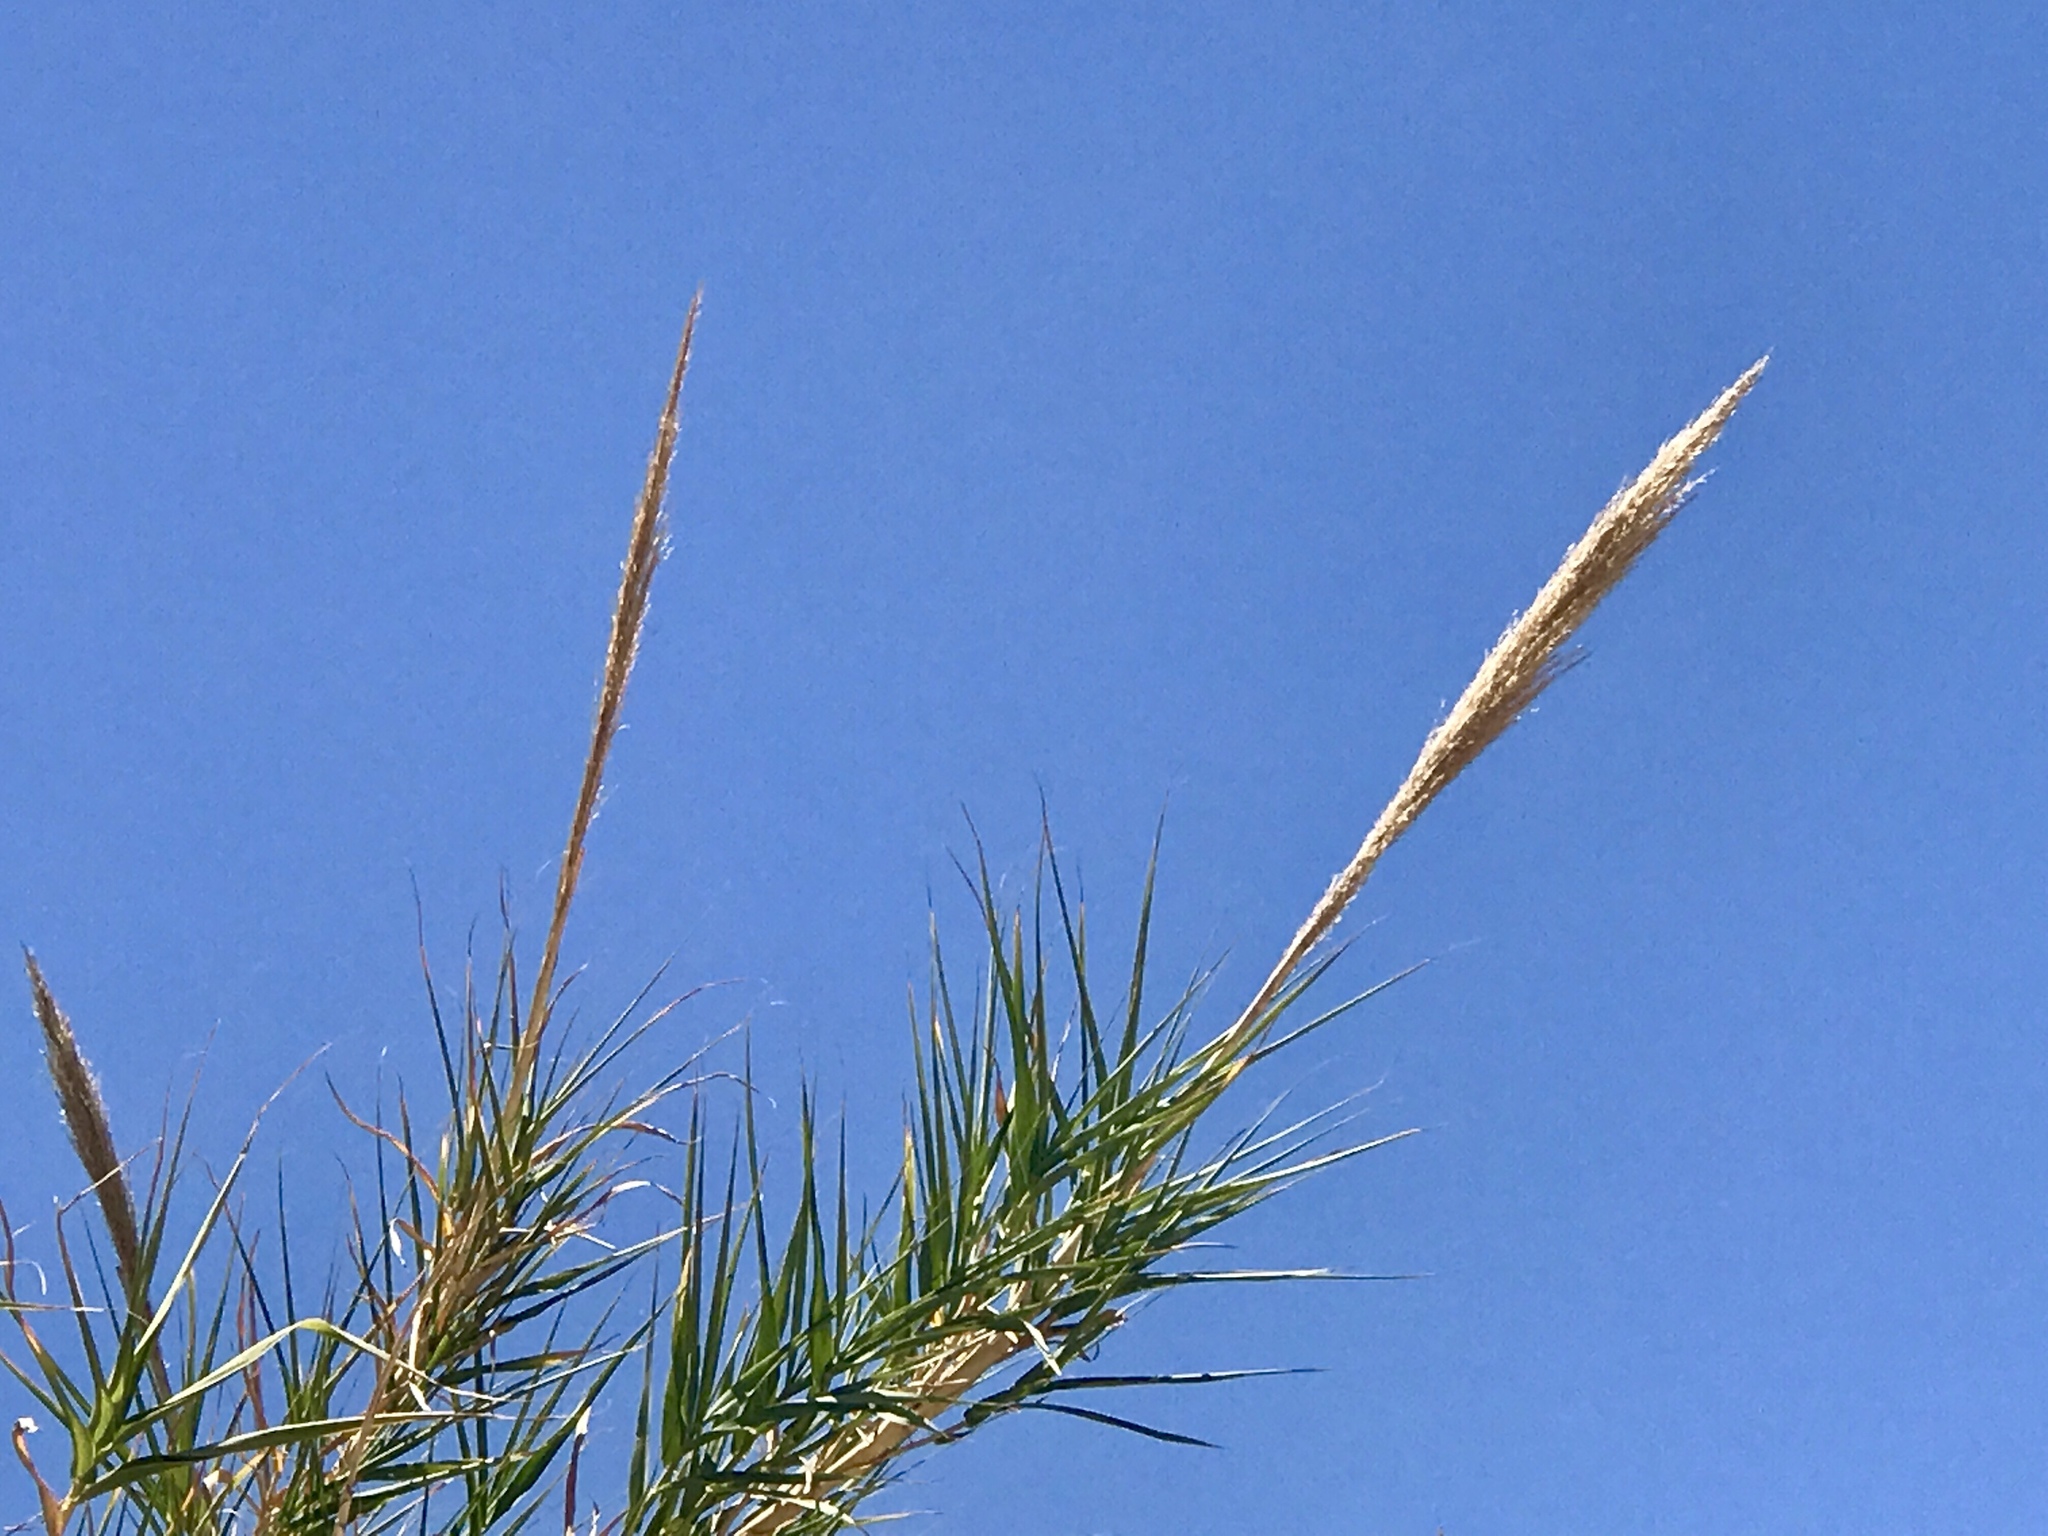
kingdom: Plantae
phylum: Tracheophyta
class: Liliopsida
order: Poales
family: Poaceae
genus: Arundo
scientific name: Arundo donax
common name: Giant reed
